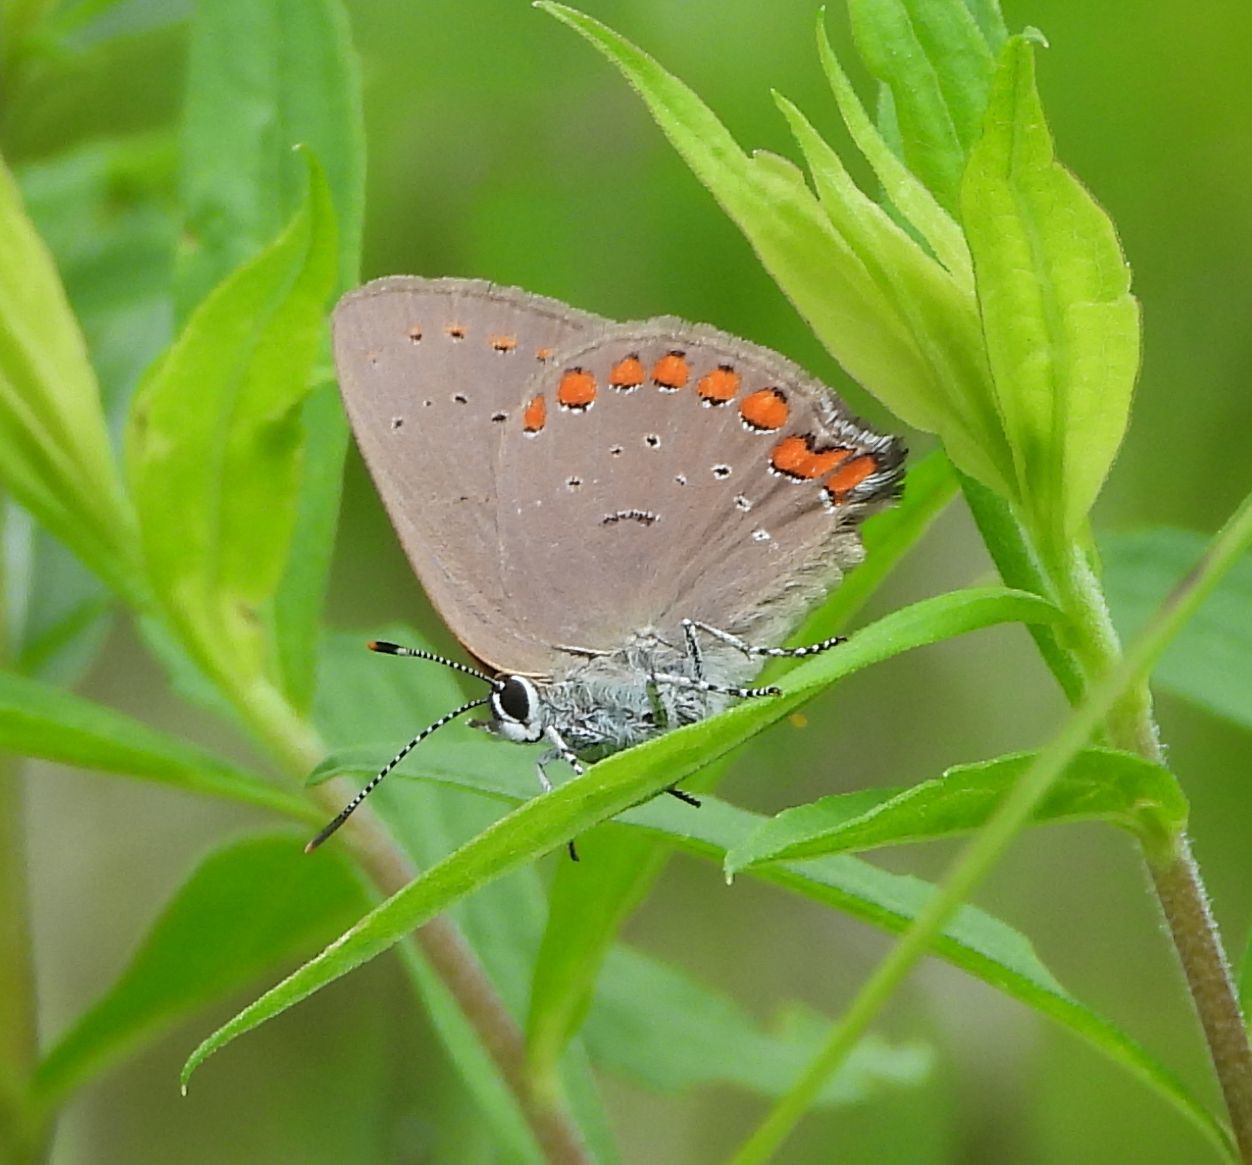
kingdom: Animalia
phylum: Arthropoda
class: Insecta
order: Lepidoptera
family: Lycaenidae
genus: Harkenclenus
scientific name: Harkenclenus titus
